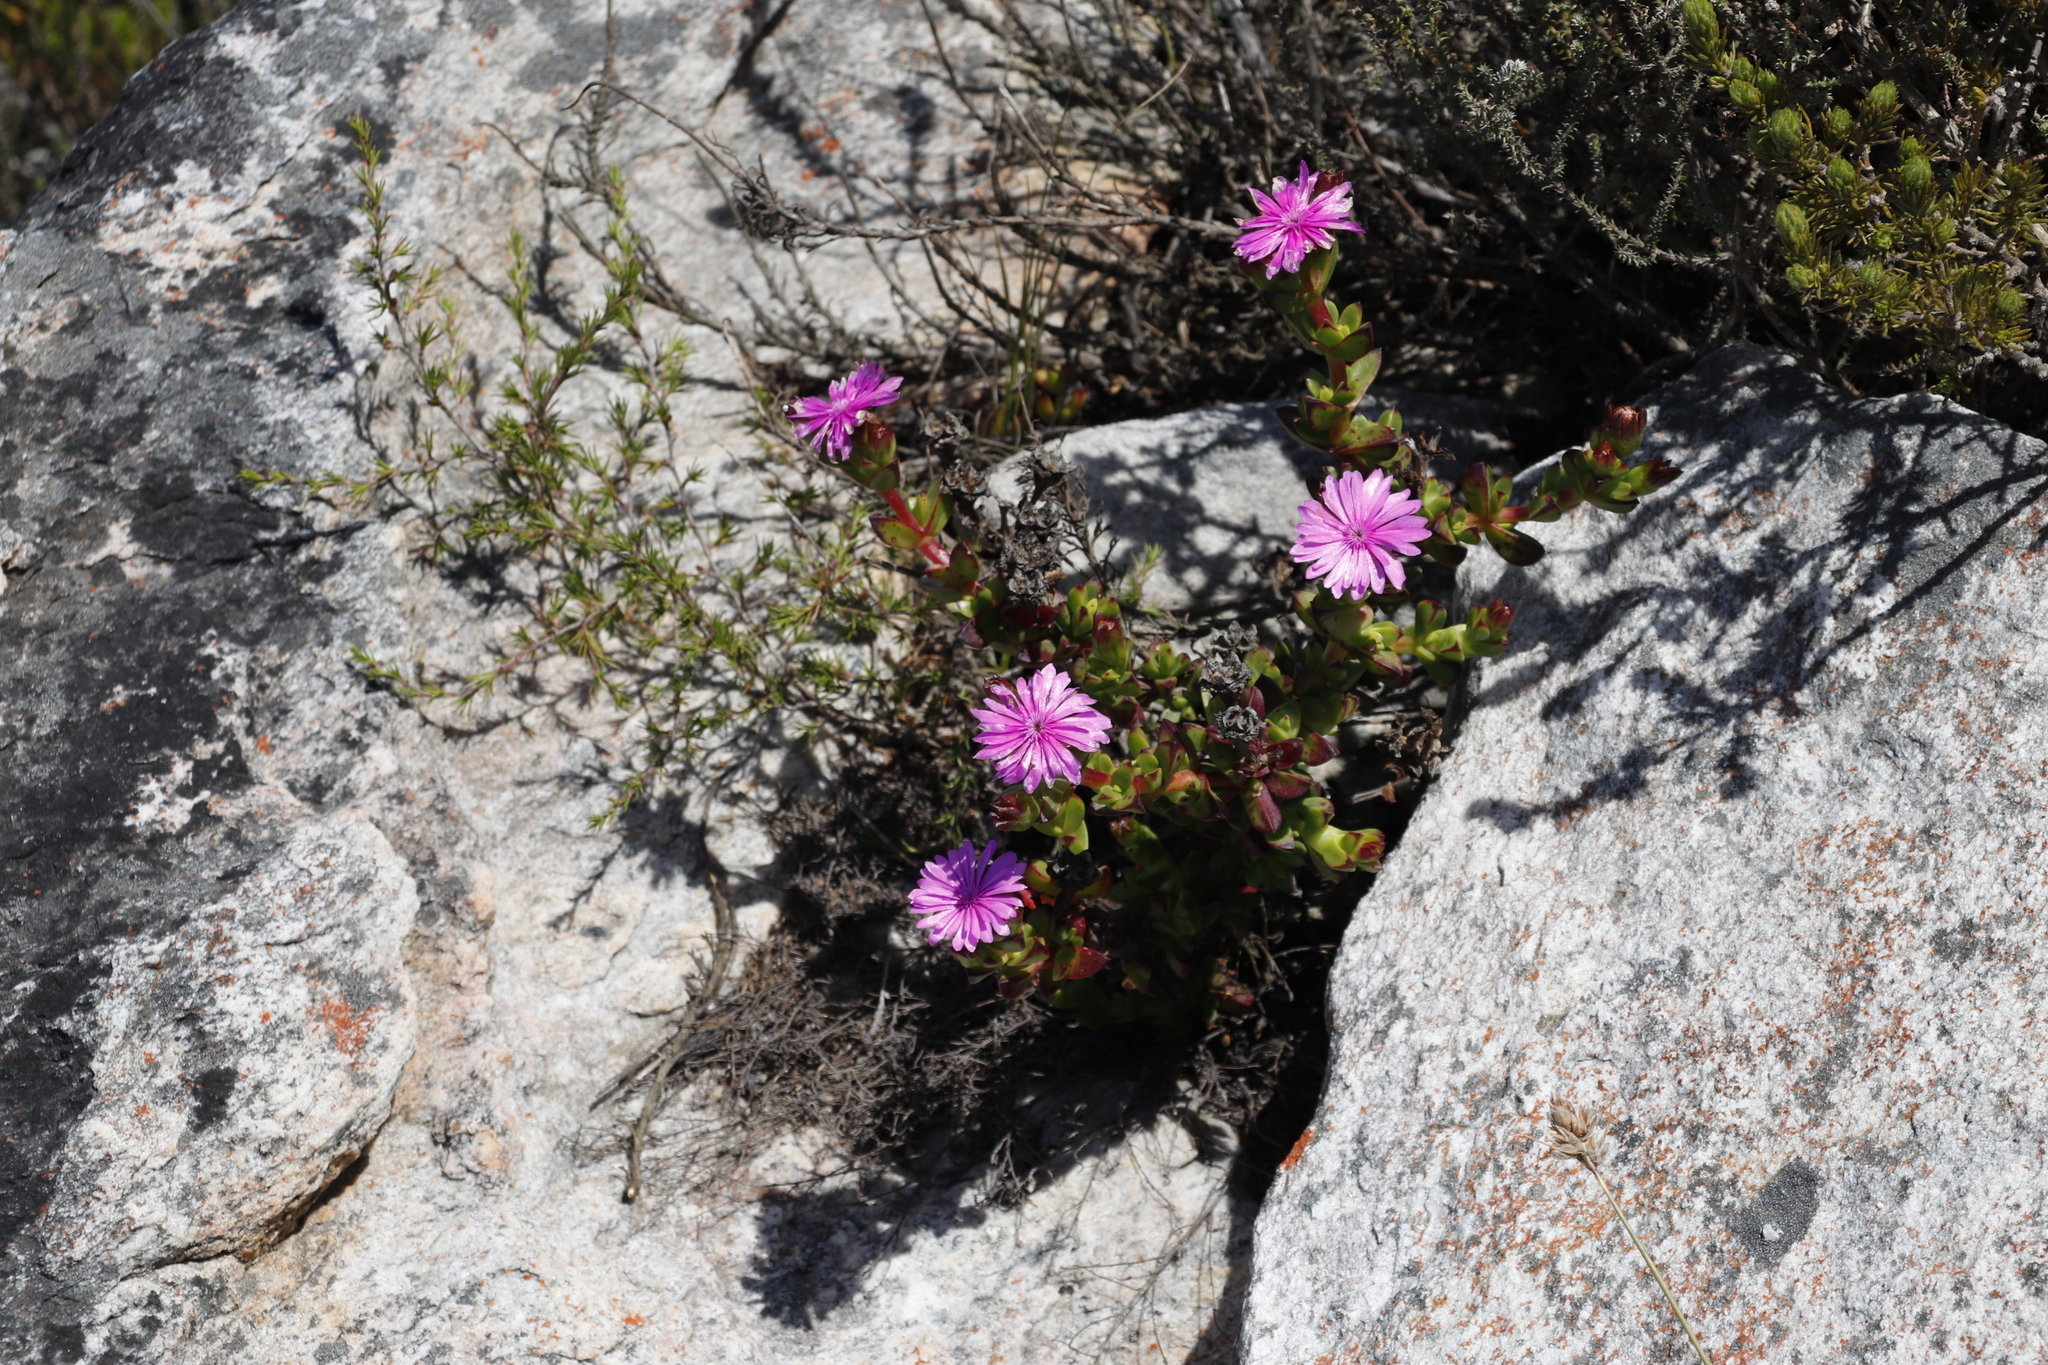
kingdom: Plantae
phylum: Tracheophyta
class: Magnoliopsida
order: Caryophyllales
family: Aizoaceae
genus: Erepsia
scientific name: Erepsia inclaudens
